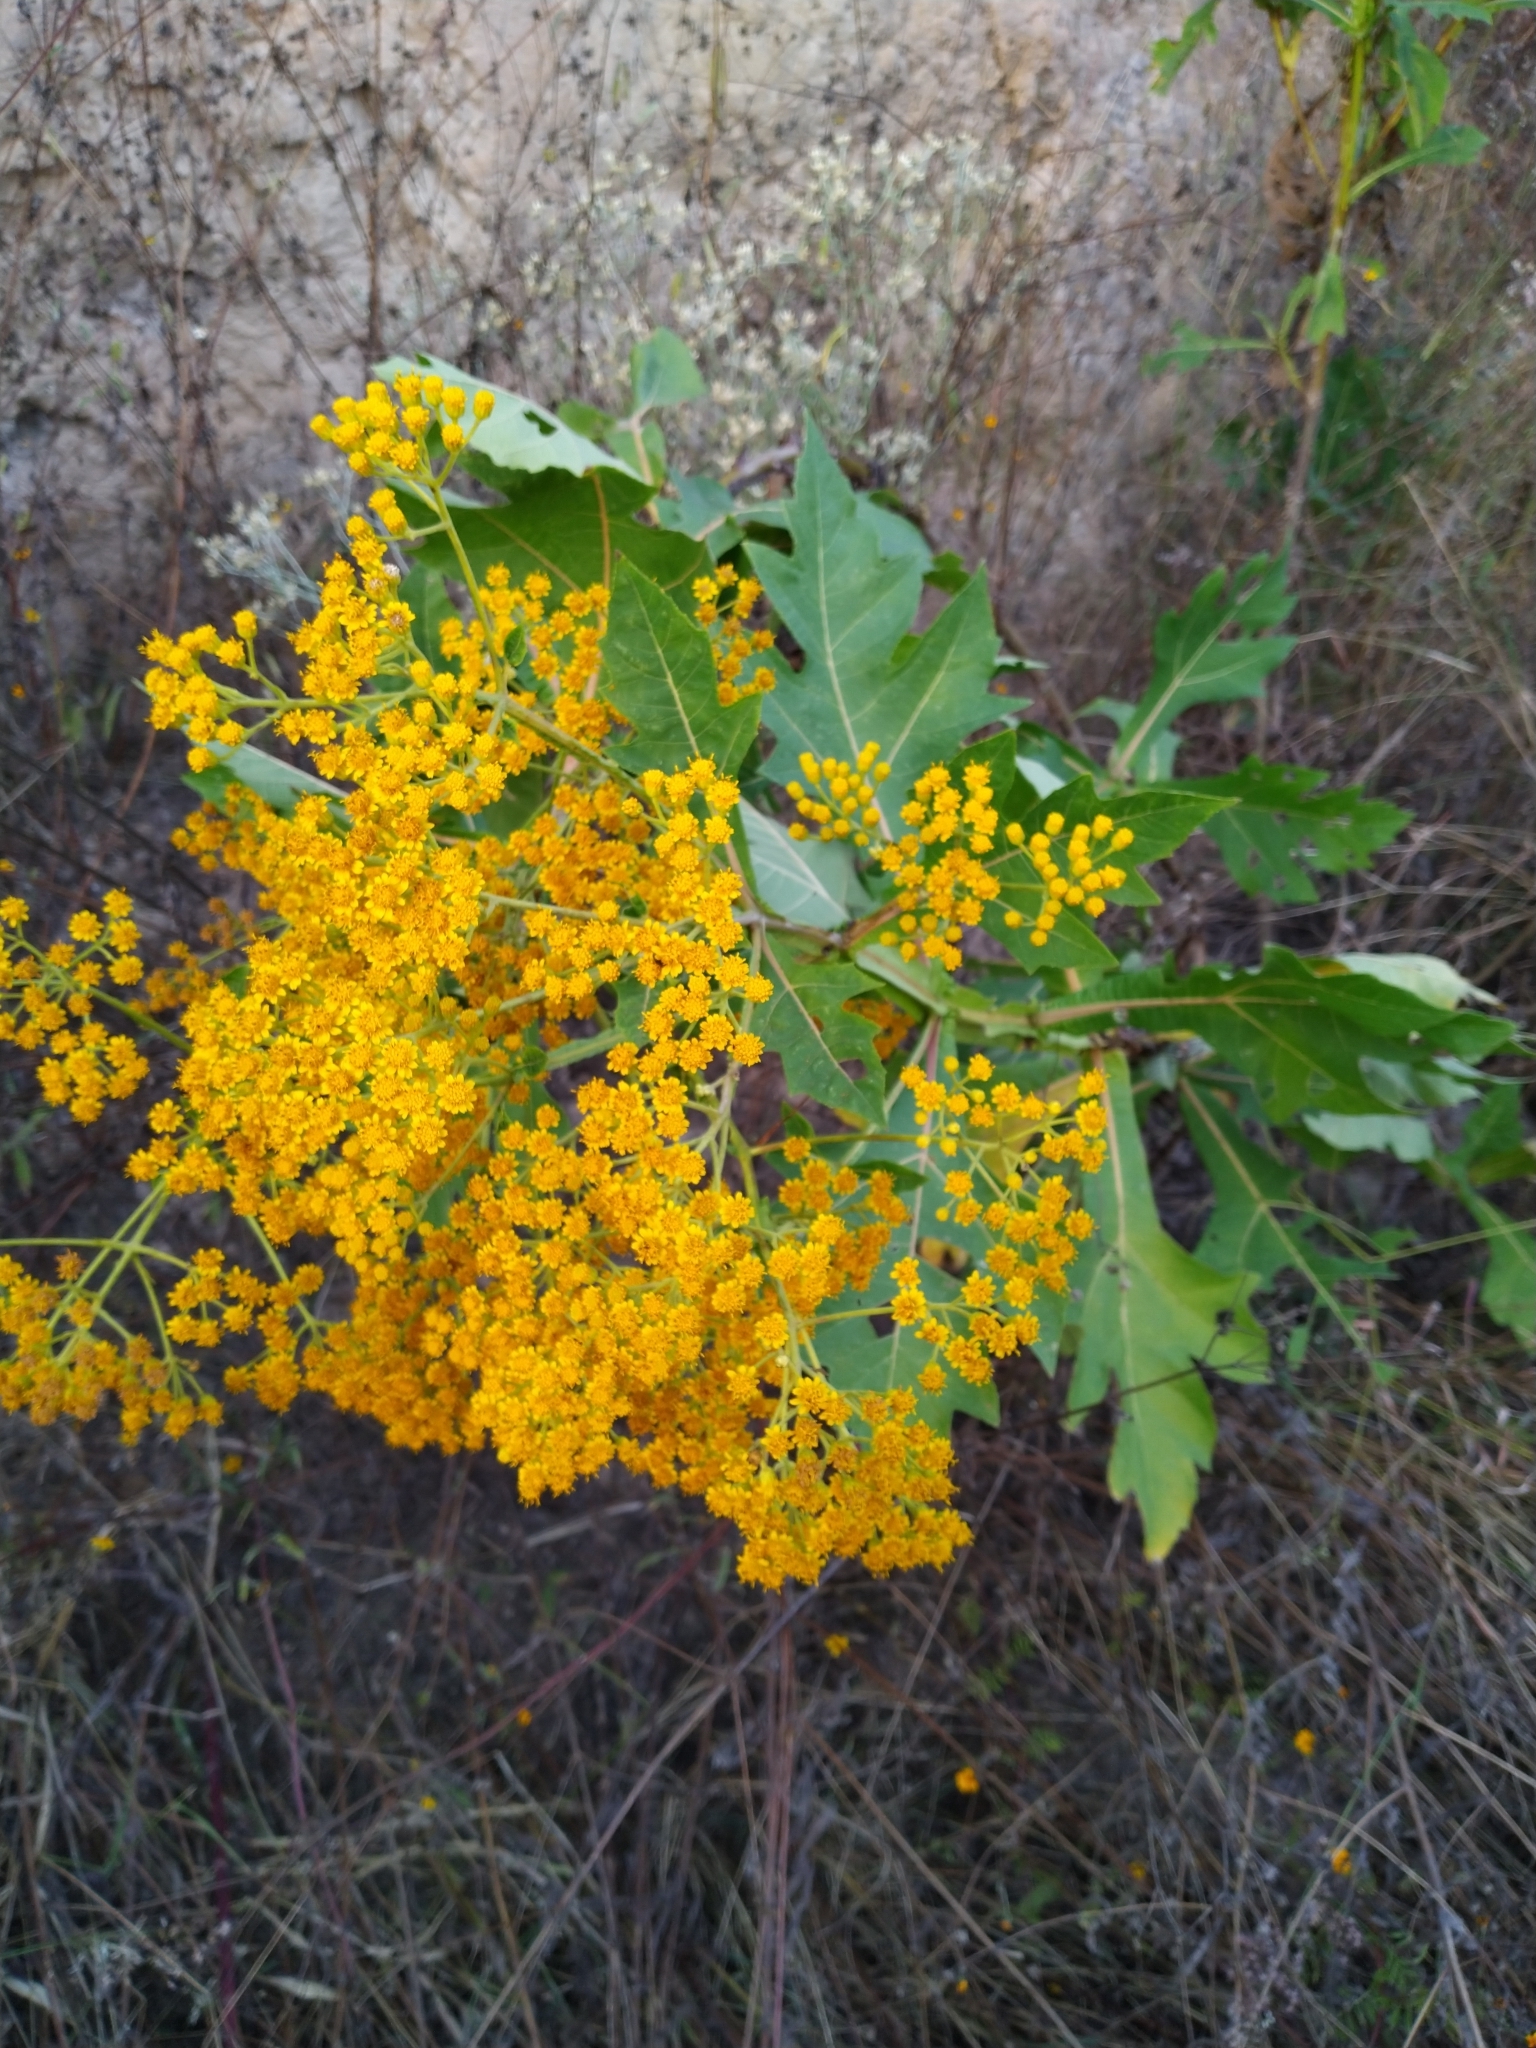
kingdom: Plantae
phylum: Tracheophyta
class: Magnoliopsida
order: Asterales
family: Asteraceae
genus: Verbesina
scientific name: Verbesina fastigiata
